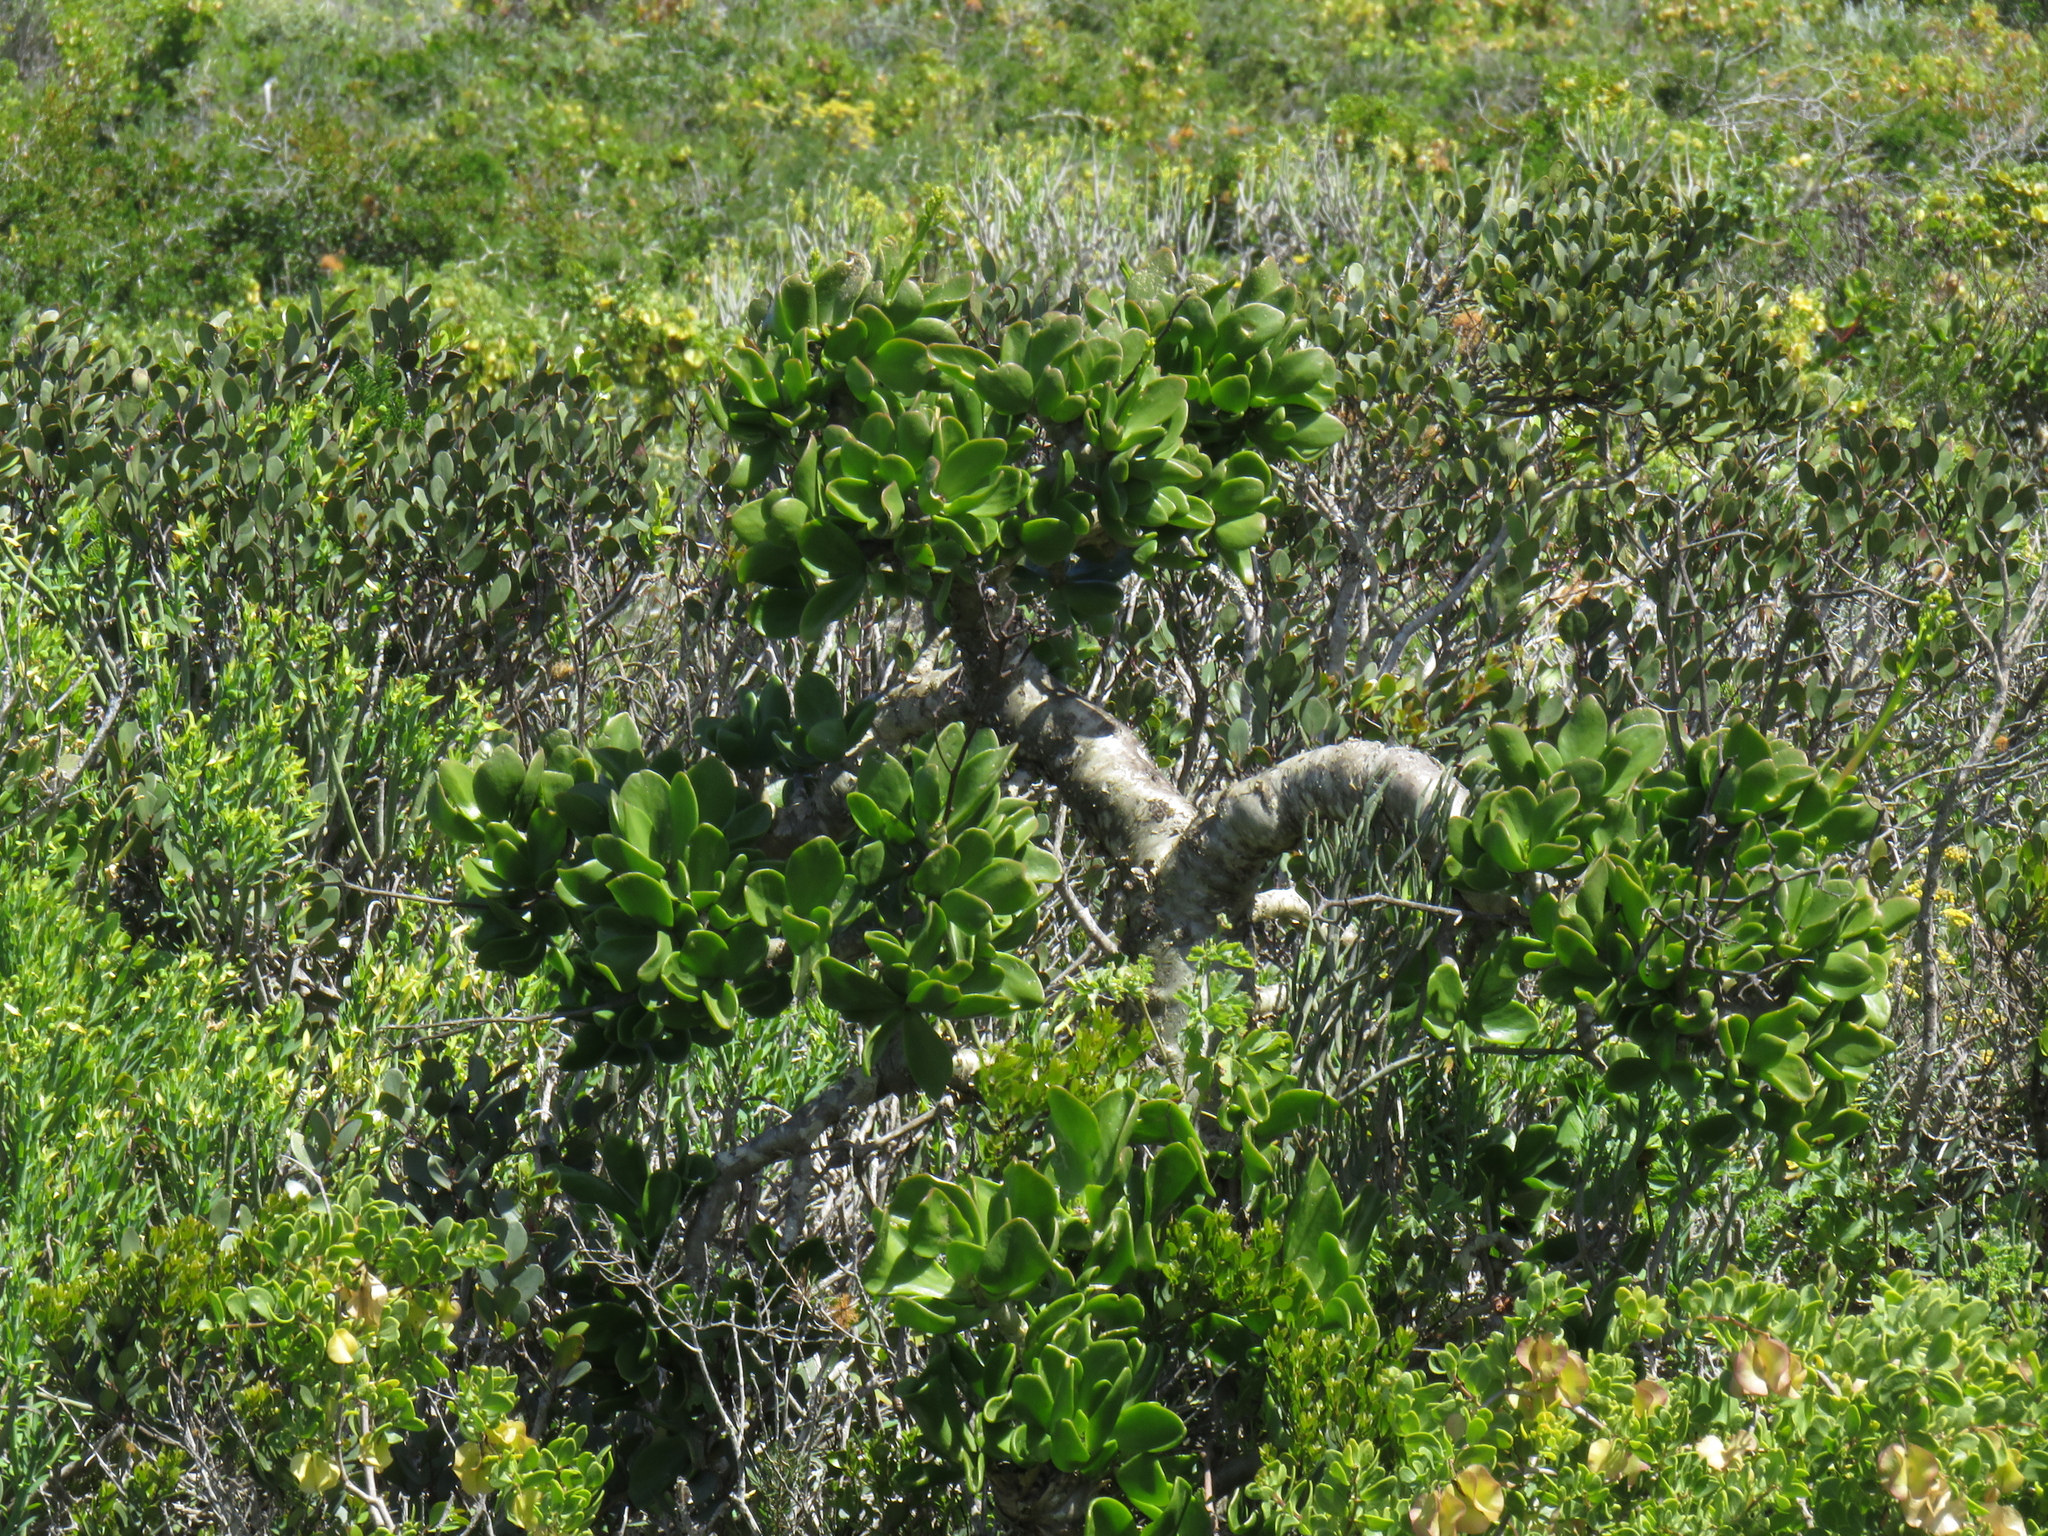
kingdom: Plantae
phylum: Tracheophyta
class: Magnoliopsida
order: Saxifragales
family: Crassulaceae
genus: Tylecodon
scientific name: Tylecodon paniculatus
